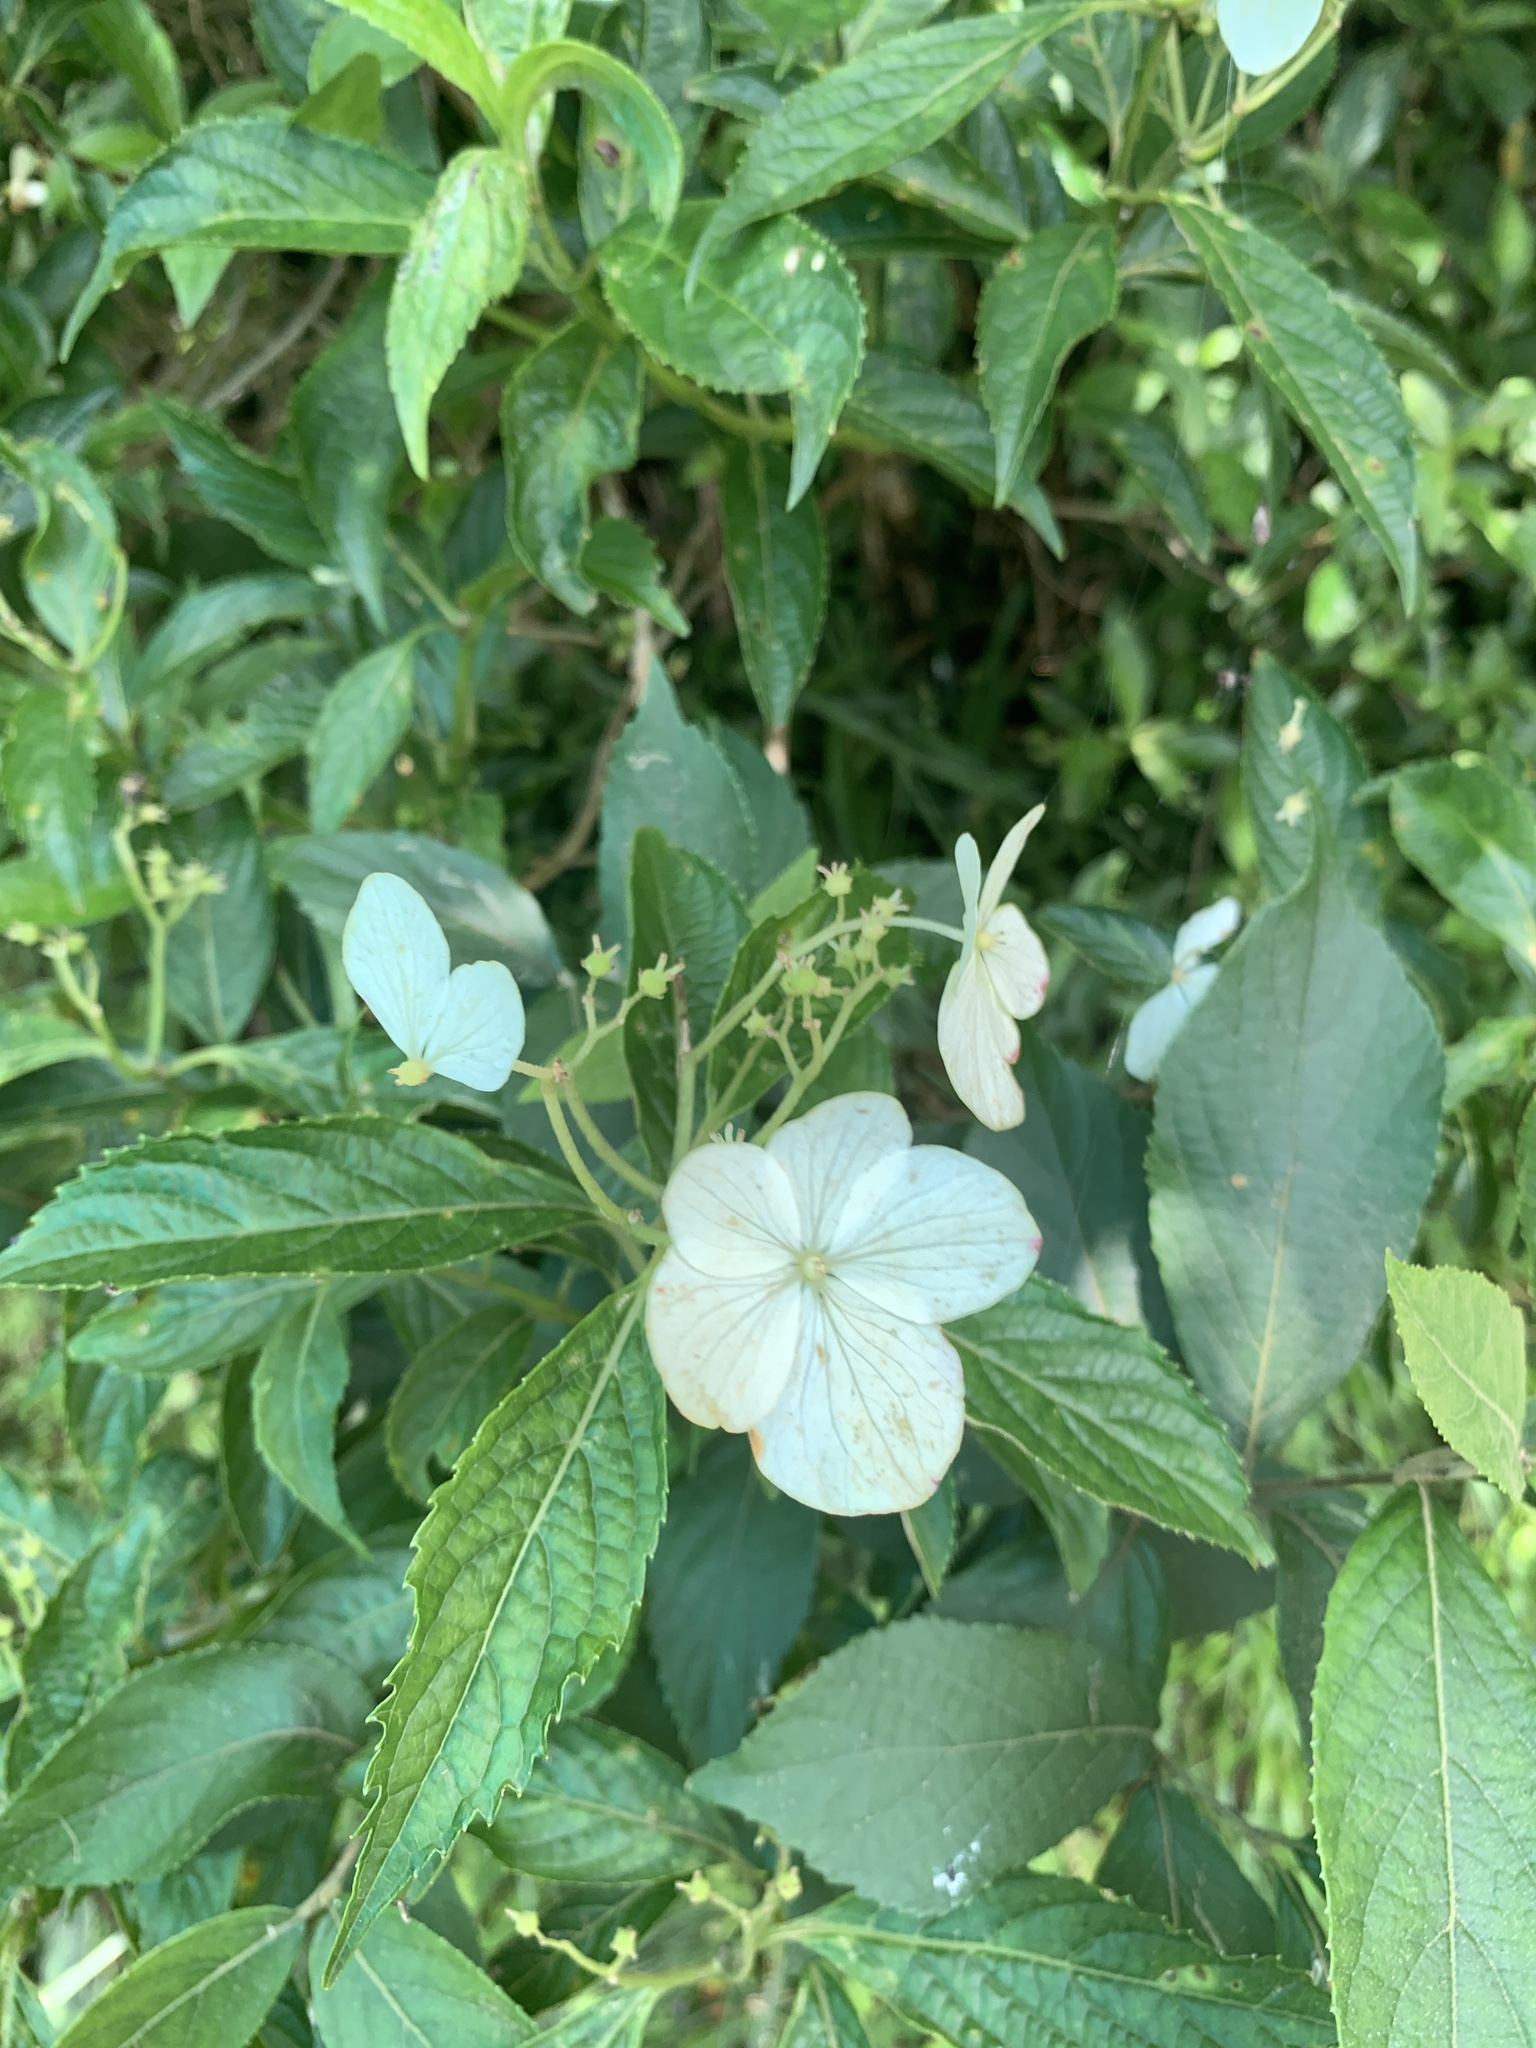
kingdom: Plantae
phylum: Tracheophyta
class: Magnoliopsida
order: Cornales
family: Hydrangeaceae
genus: Hydrangea
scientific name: Hydrangea chinensis
